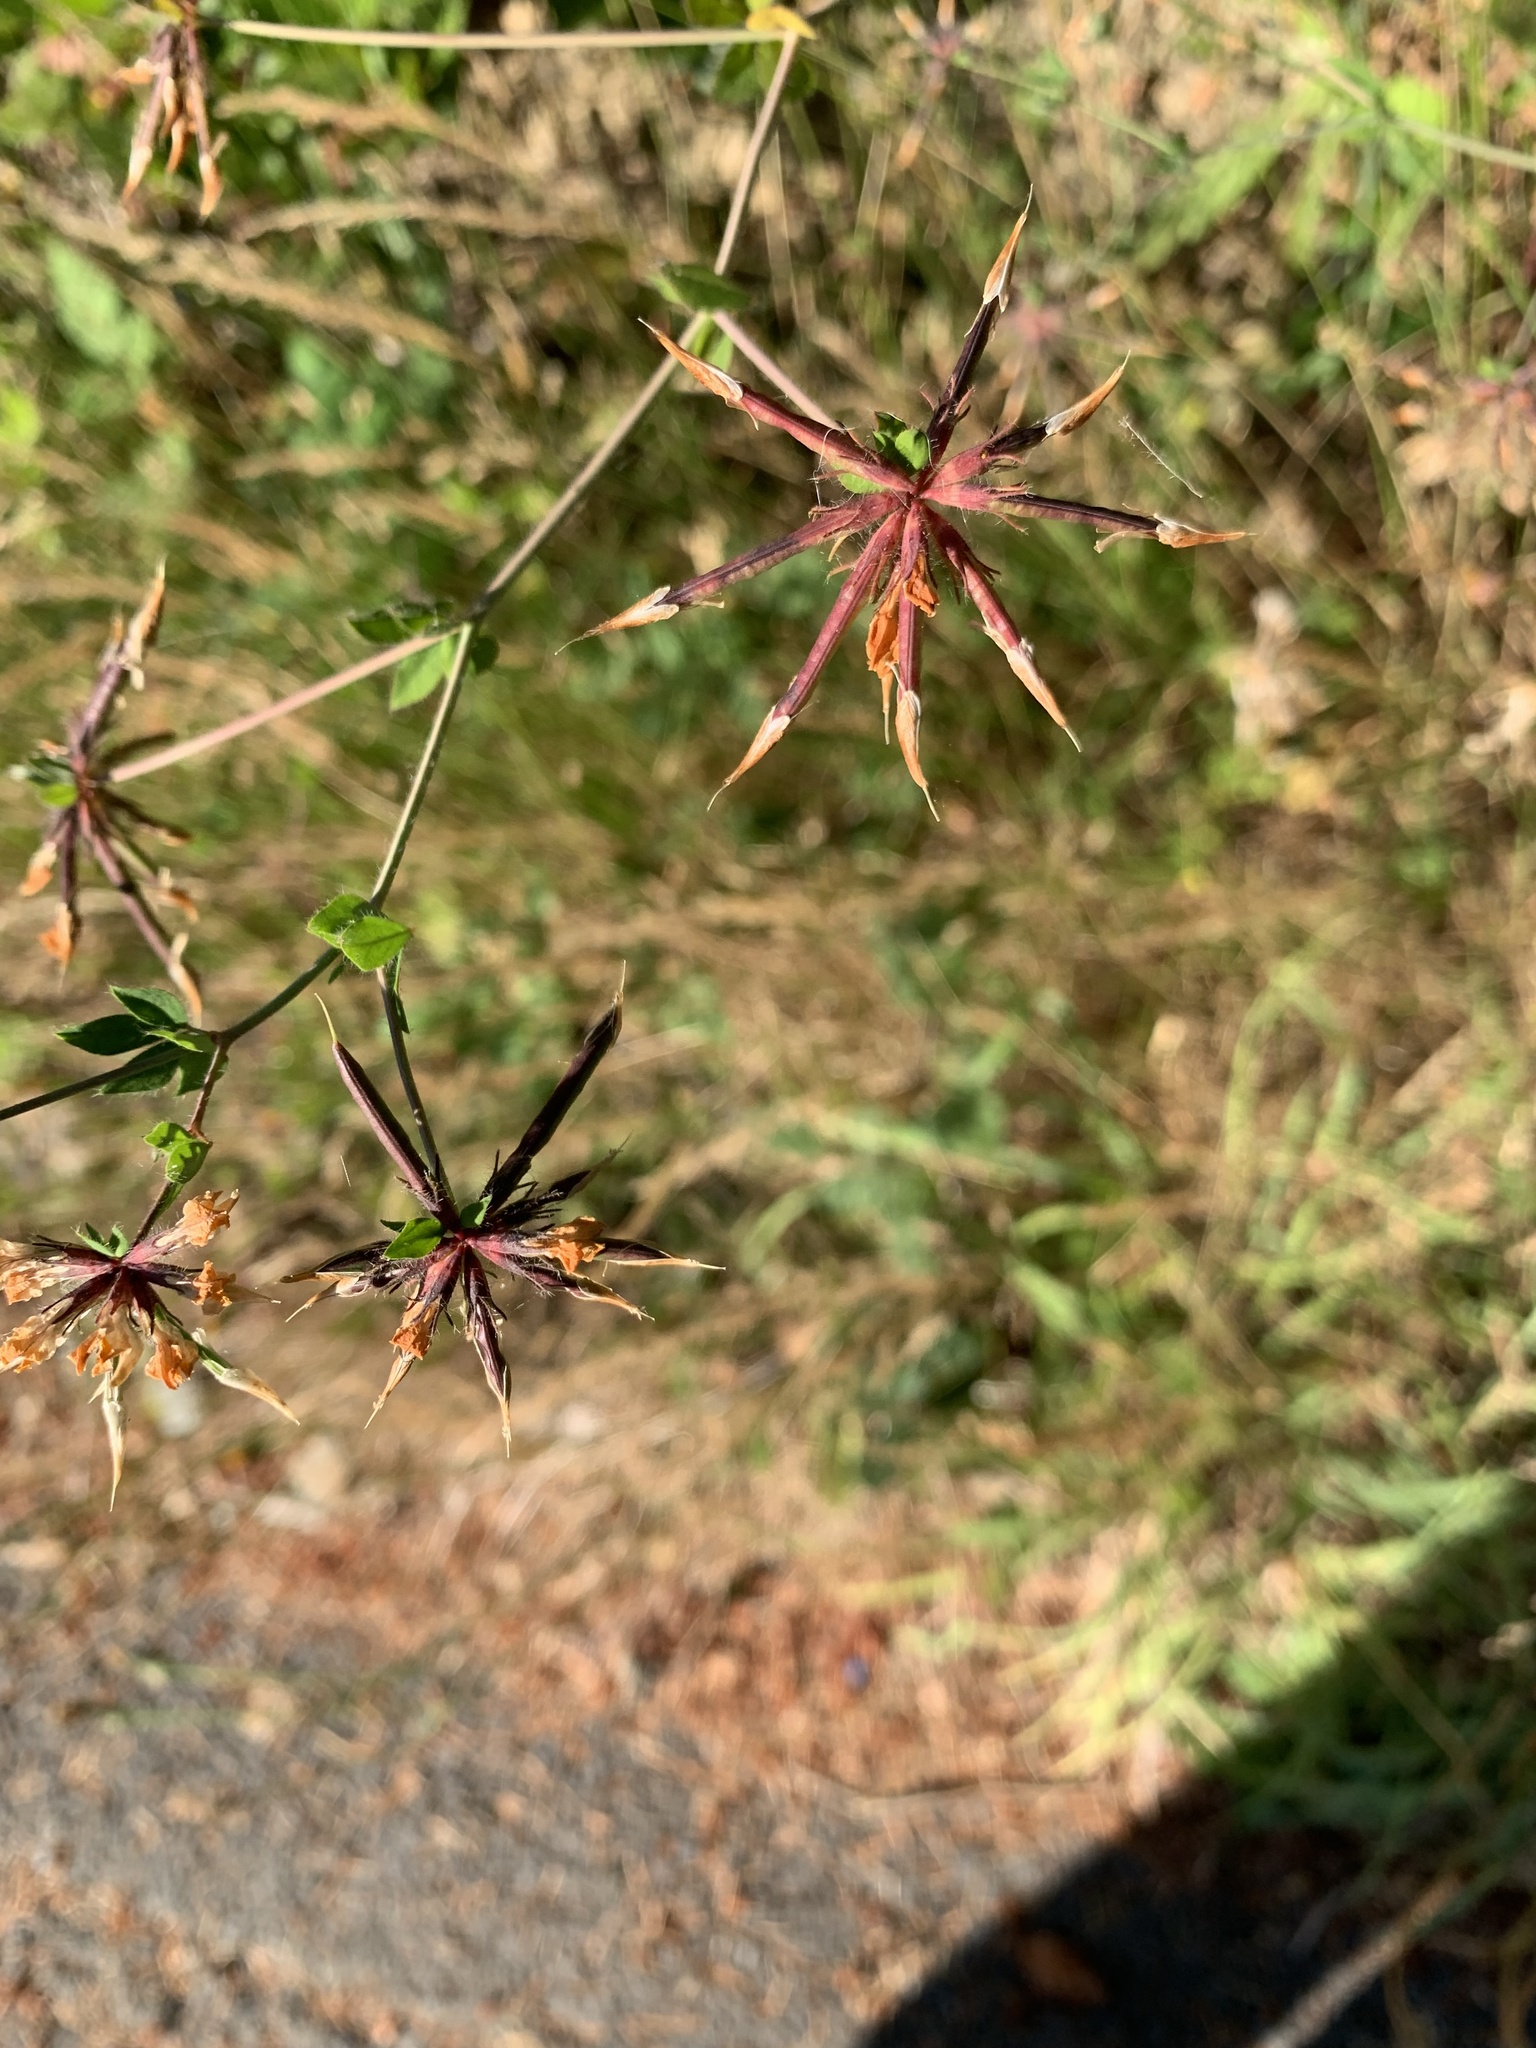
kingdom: Plantae
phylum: Tracheophyta
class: Magnoliopsida
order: Fabales
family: Fabaceae
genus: Lotus
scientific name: Lotus pedunculatus
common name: Greater birdsfoot-trefoil
